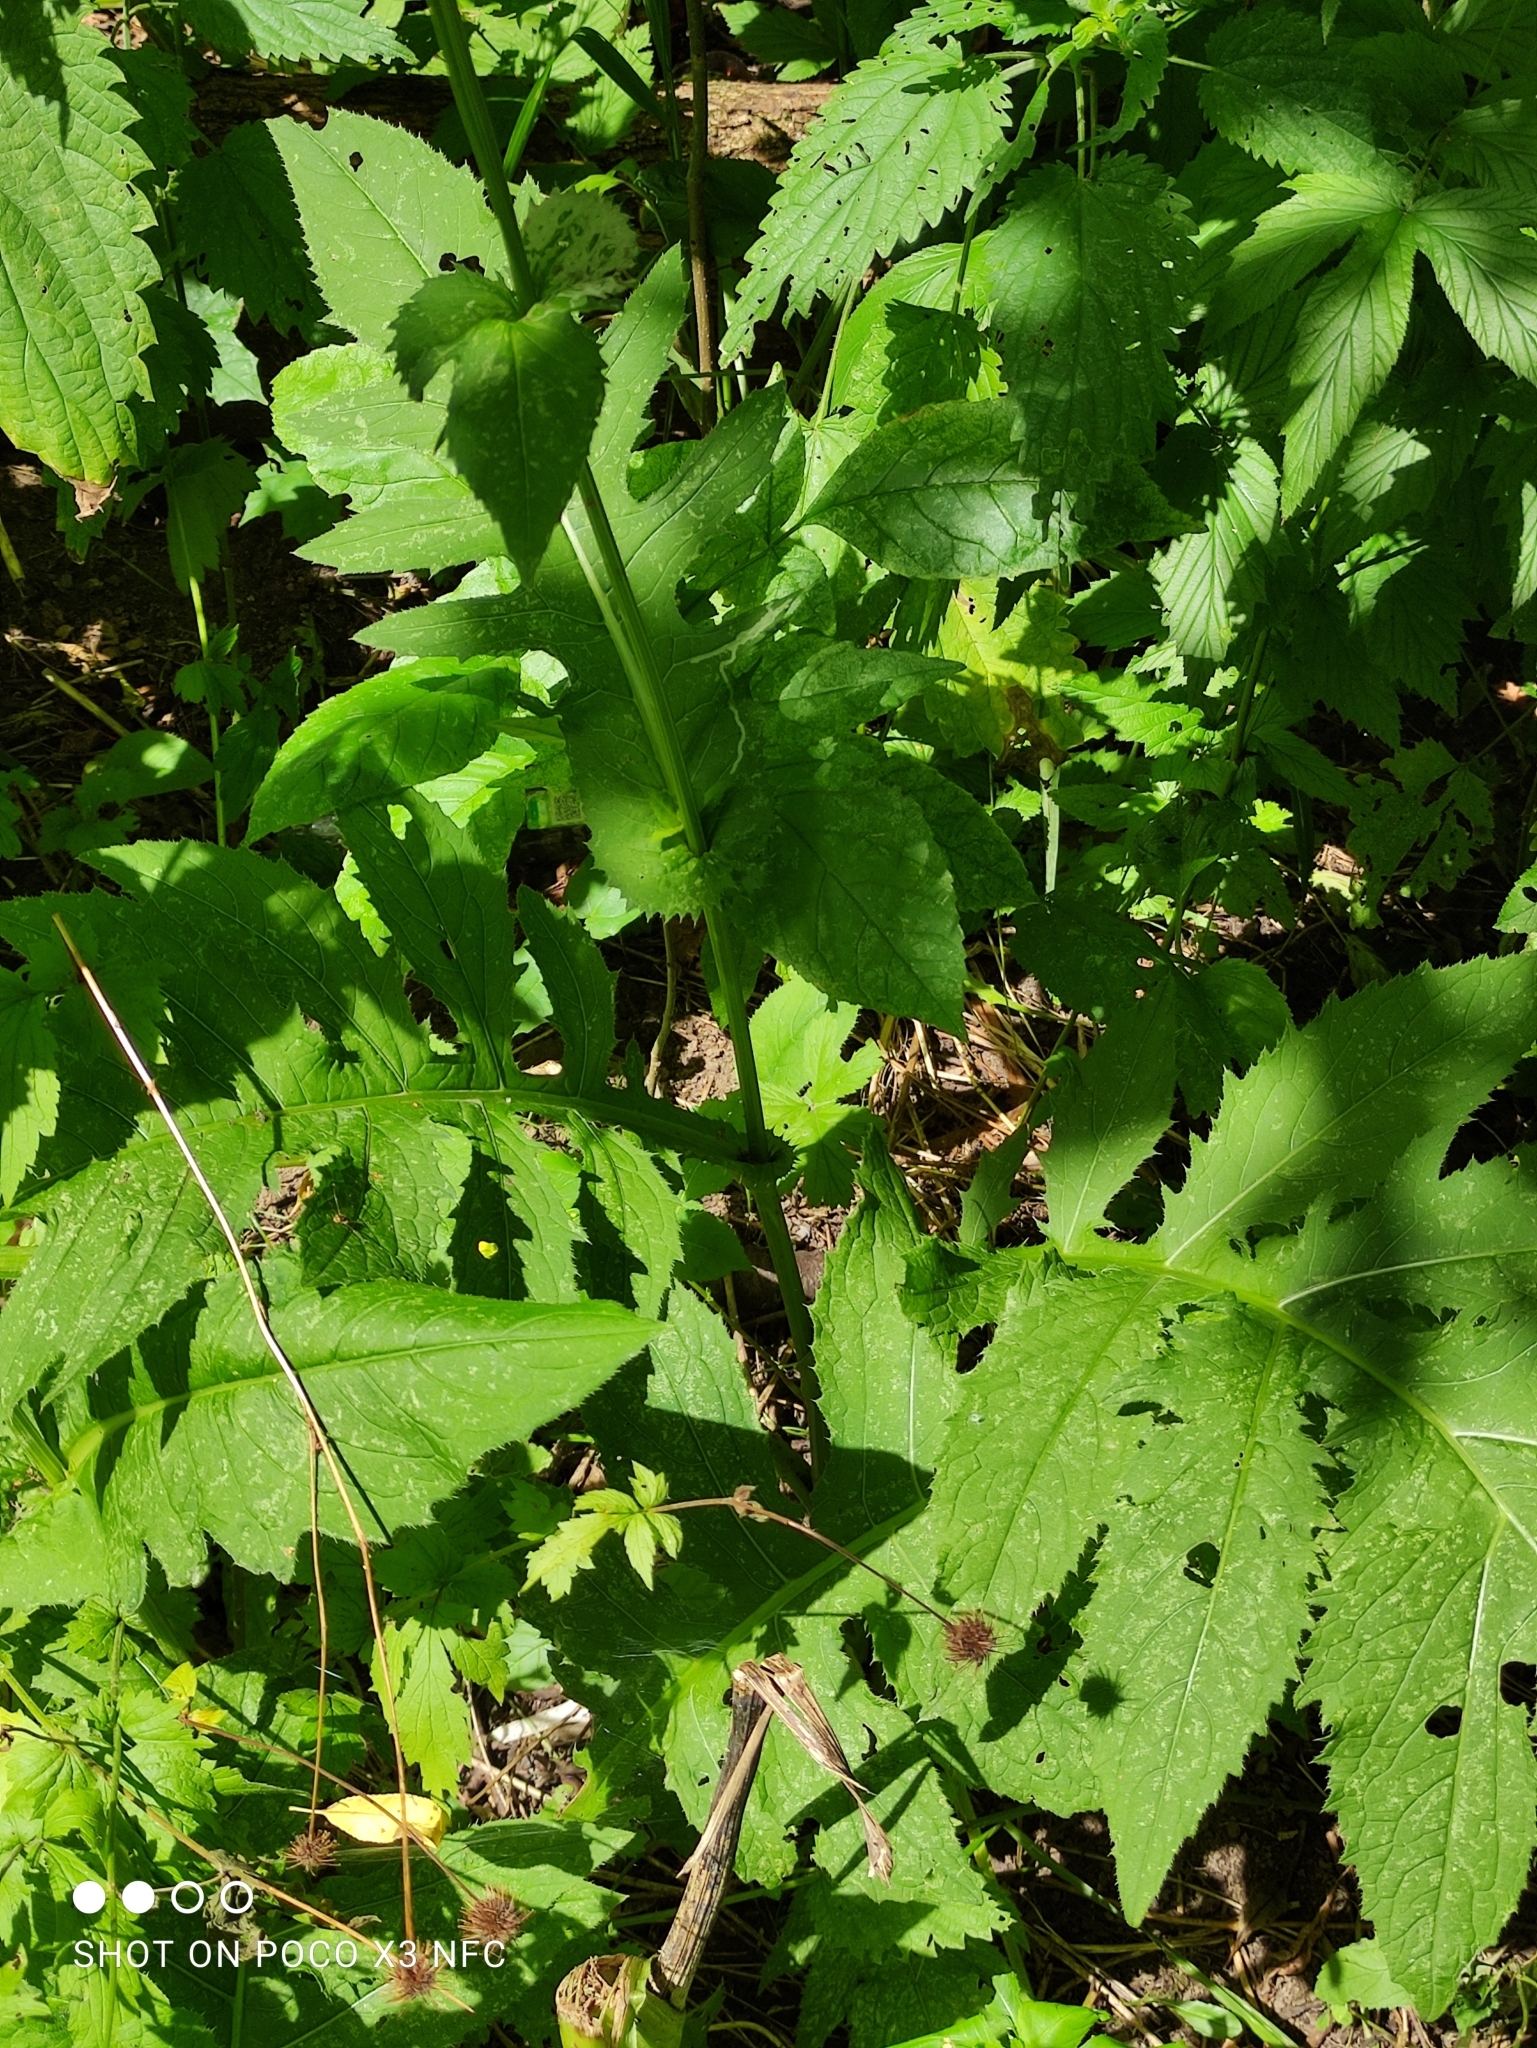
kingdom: Plantae
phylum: Tracheophyta
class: Magnoliopsida
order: Asterales
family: Asteraceae
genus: Cirsium
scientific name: Cirsium oleraceum
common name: Cabbage thistle
